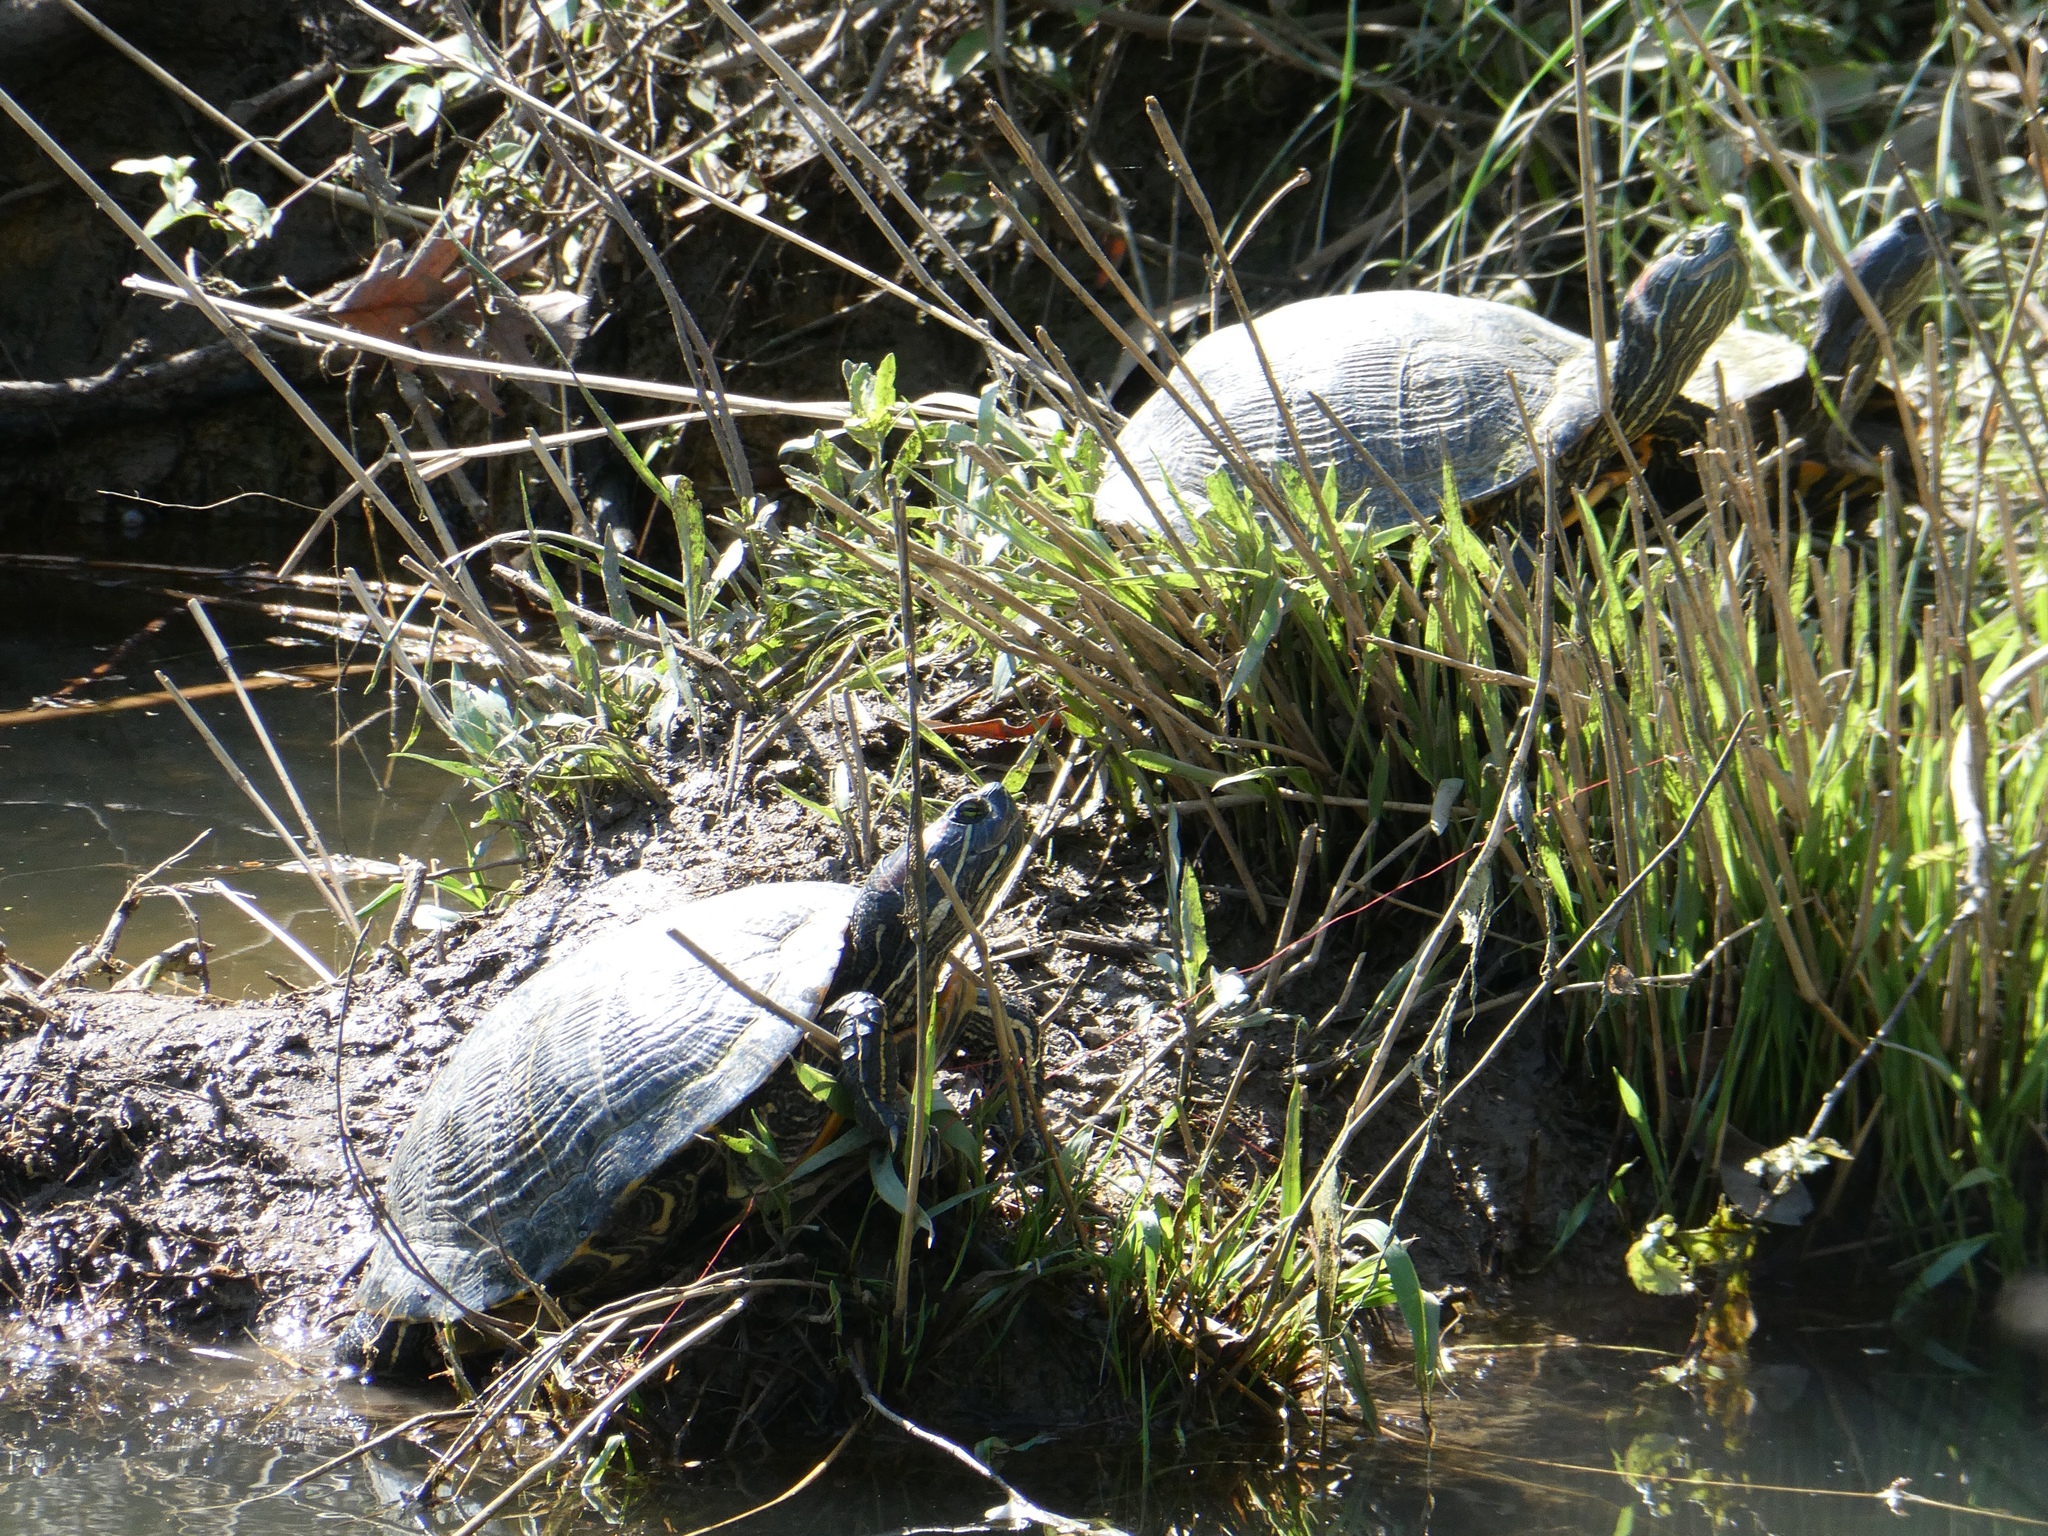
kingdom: Animalia
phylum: Chordata
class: Testudines
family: Emydidae
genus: Trachemys
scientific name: Trachemys scripta
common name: Slider
